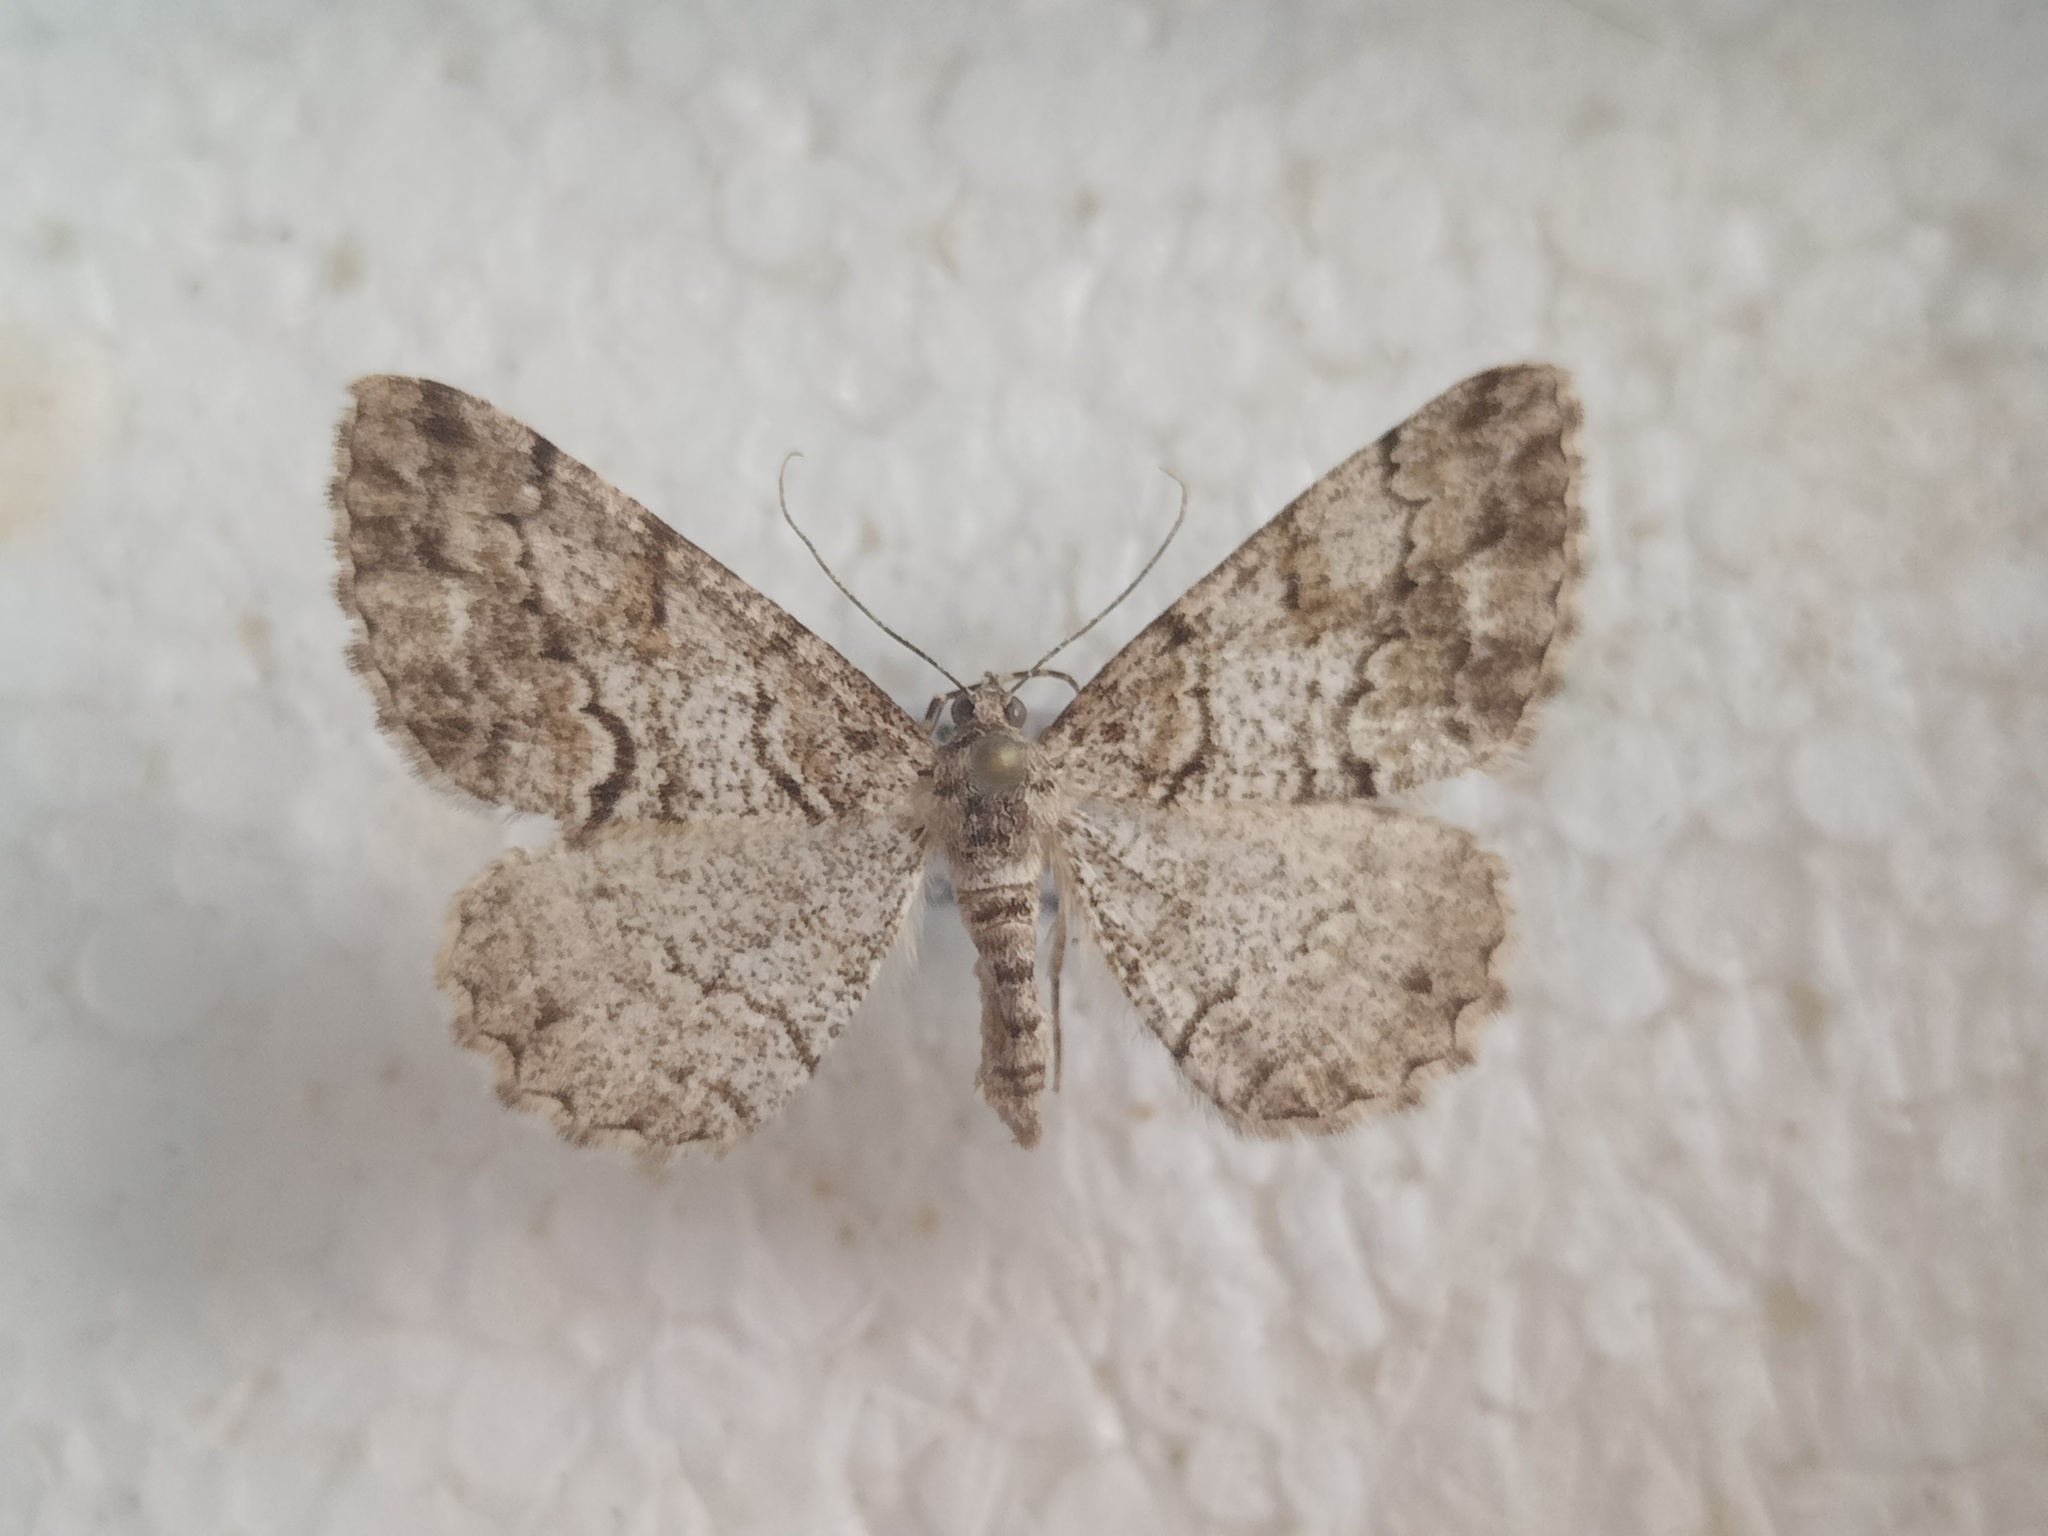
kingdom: Animalia
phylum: Arthropoda
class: Insecta
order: Lepidoptera
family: Geometridae
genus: Peribatodes
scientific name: Peribatodes secundaria
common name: Feathered beauty
